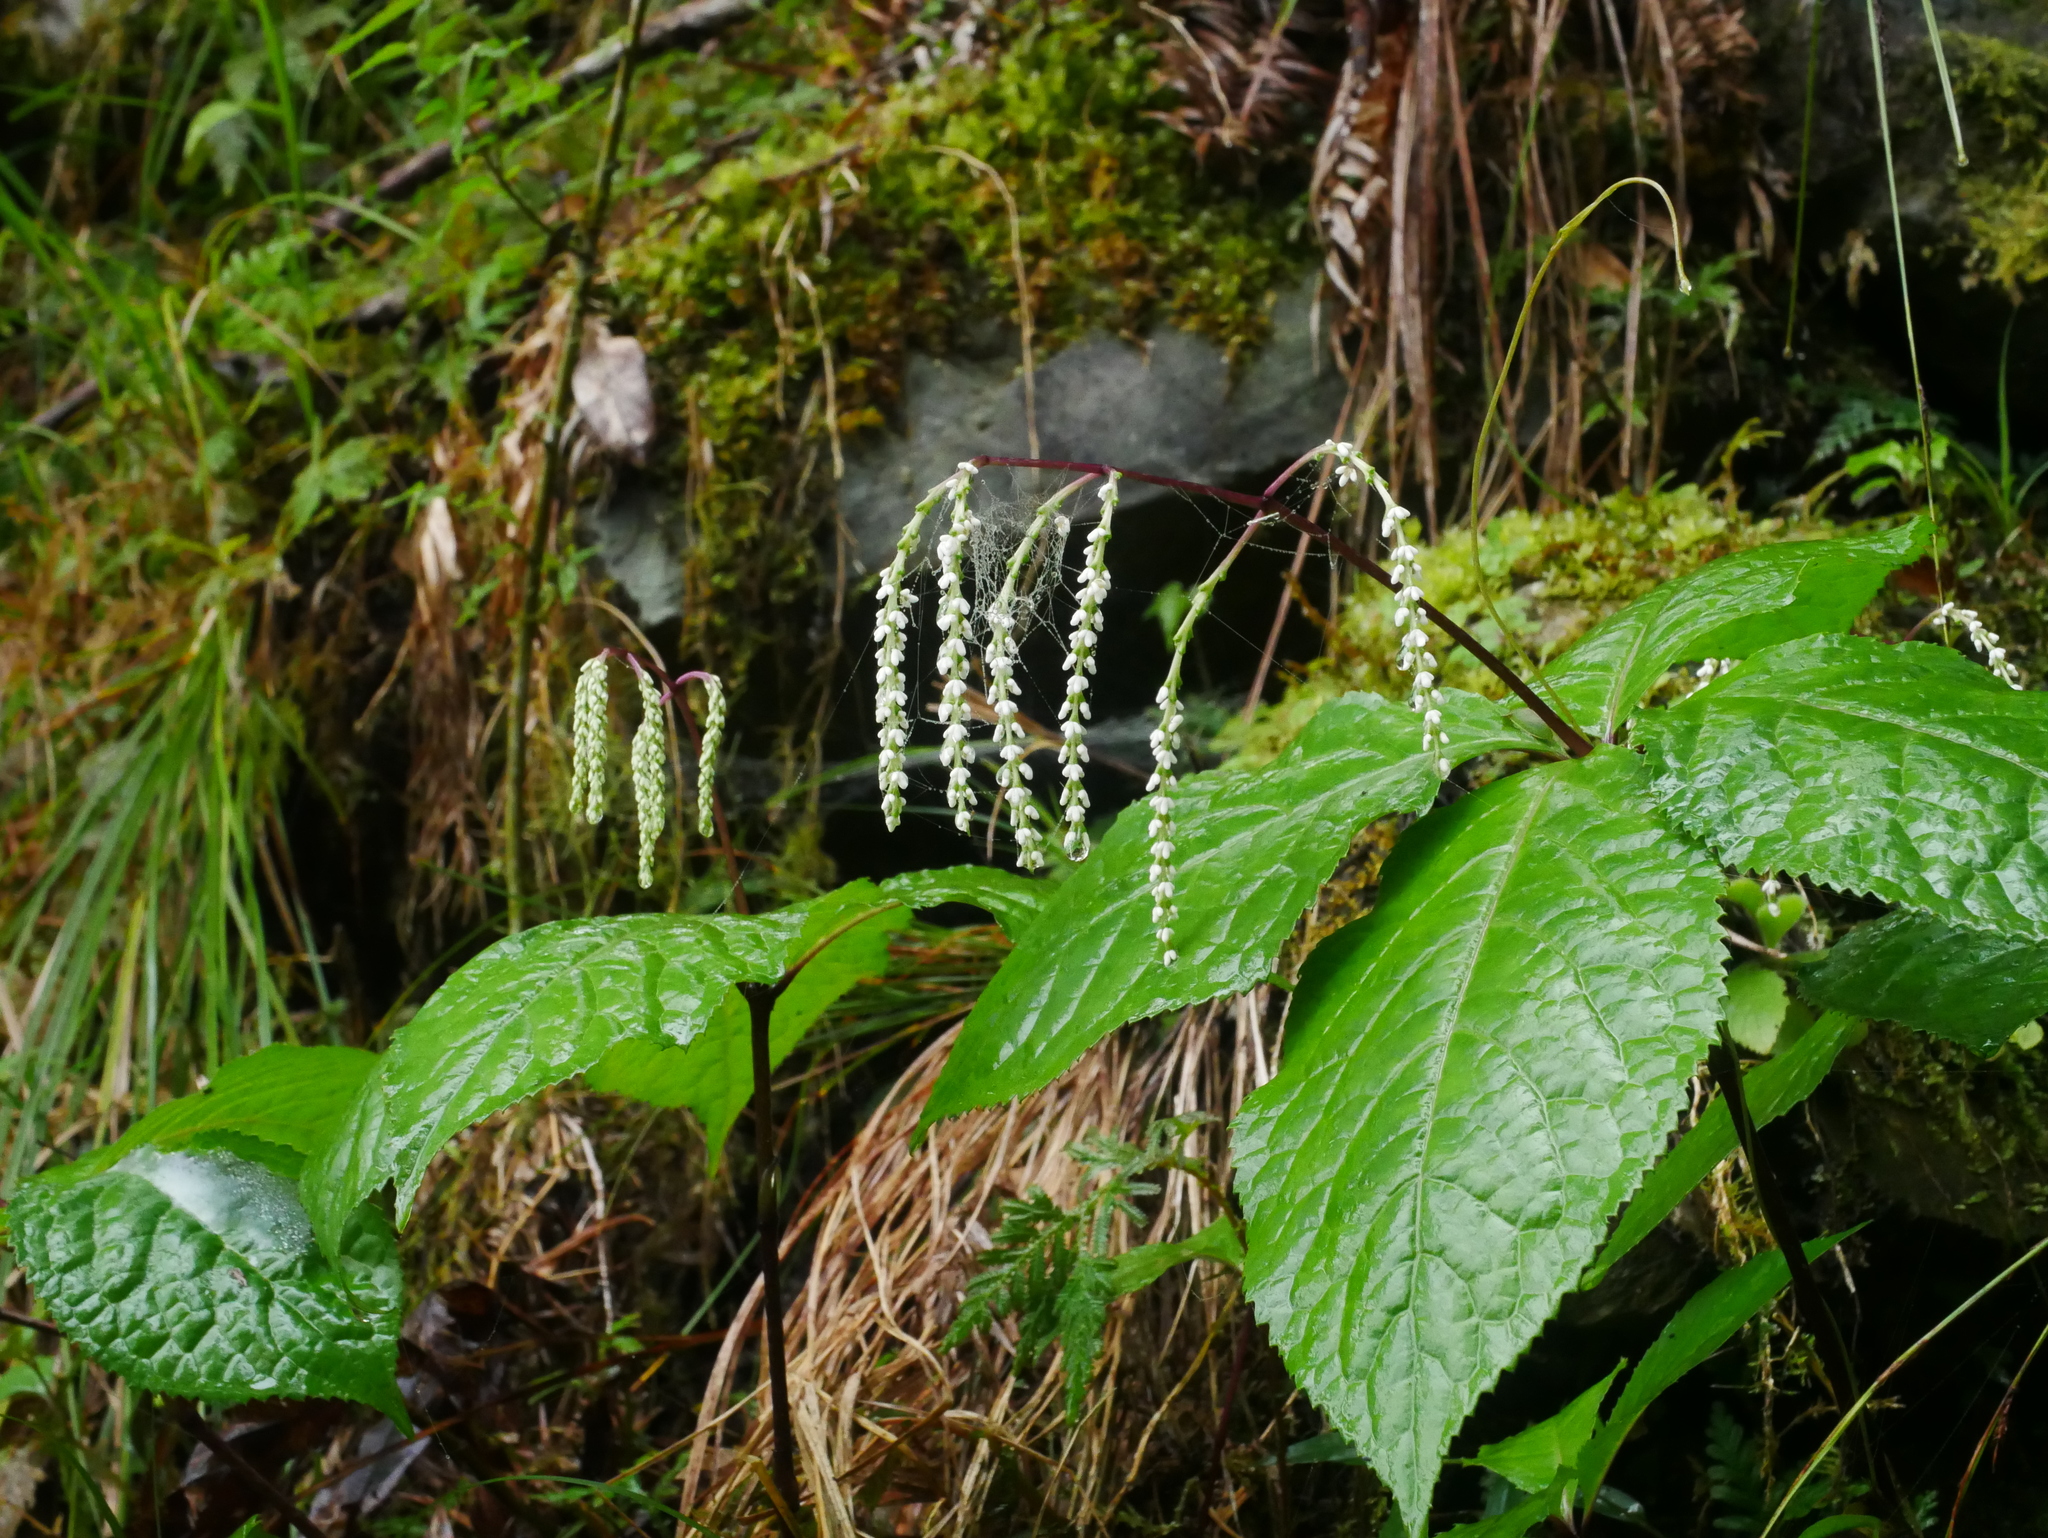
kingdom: Plantae
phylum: Tracheophyta
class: Magnoliopsida
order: Chloranthales
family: Chloranthaceae
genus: Chloranthus
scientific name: Chloranthus oldhamii
